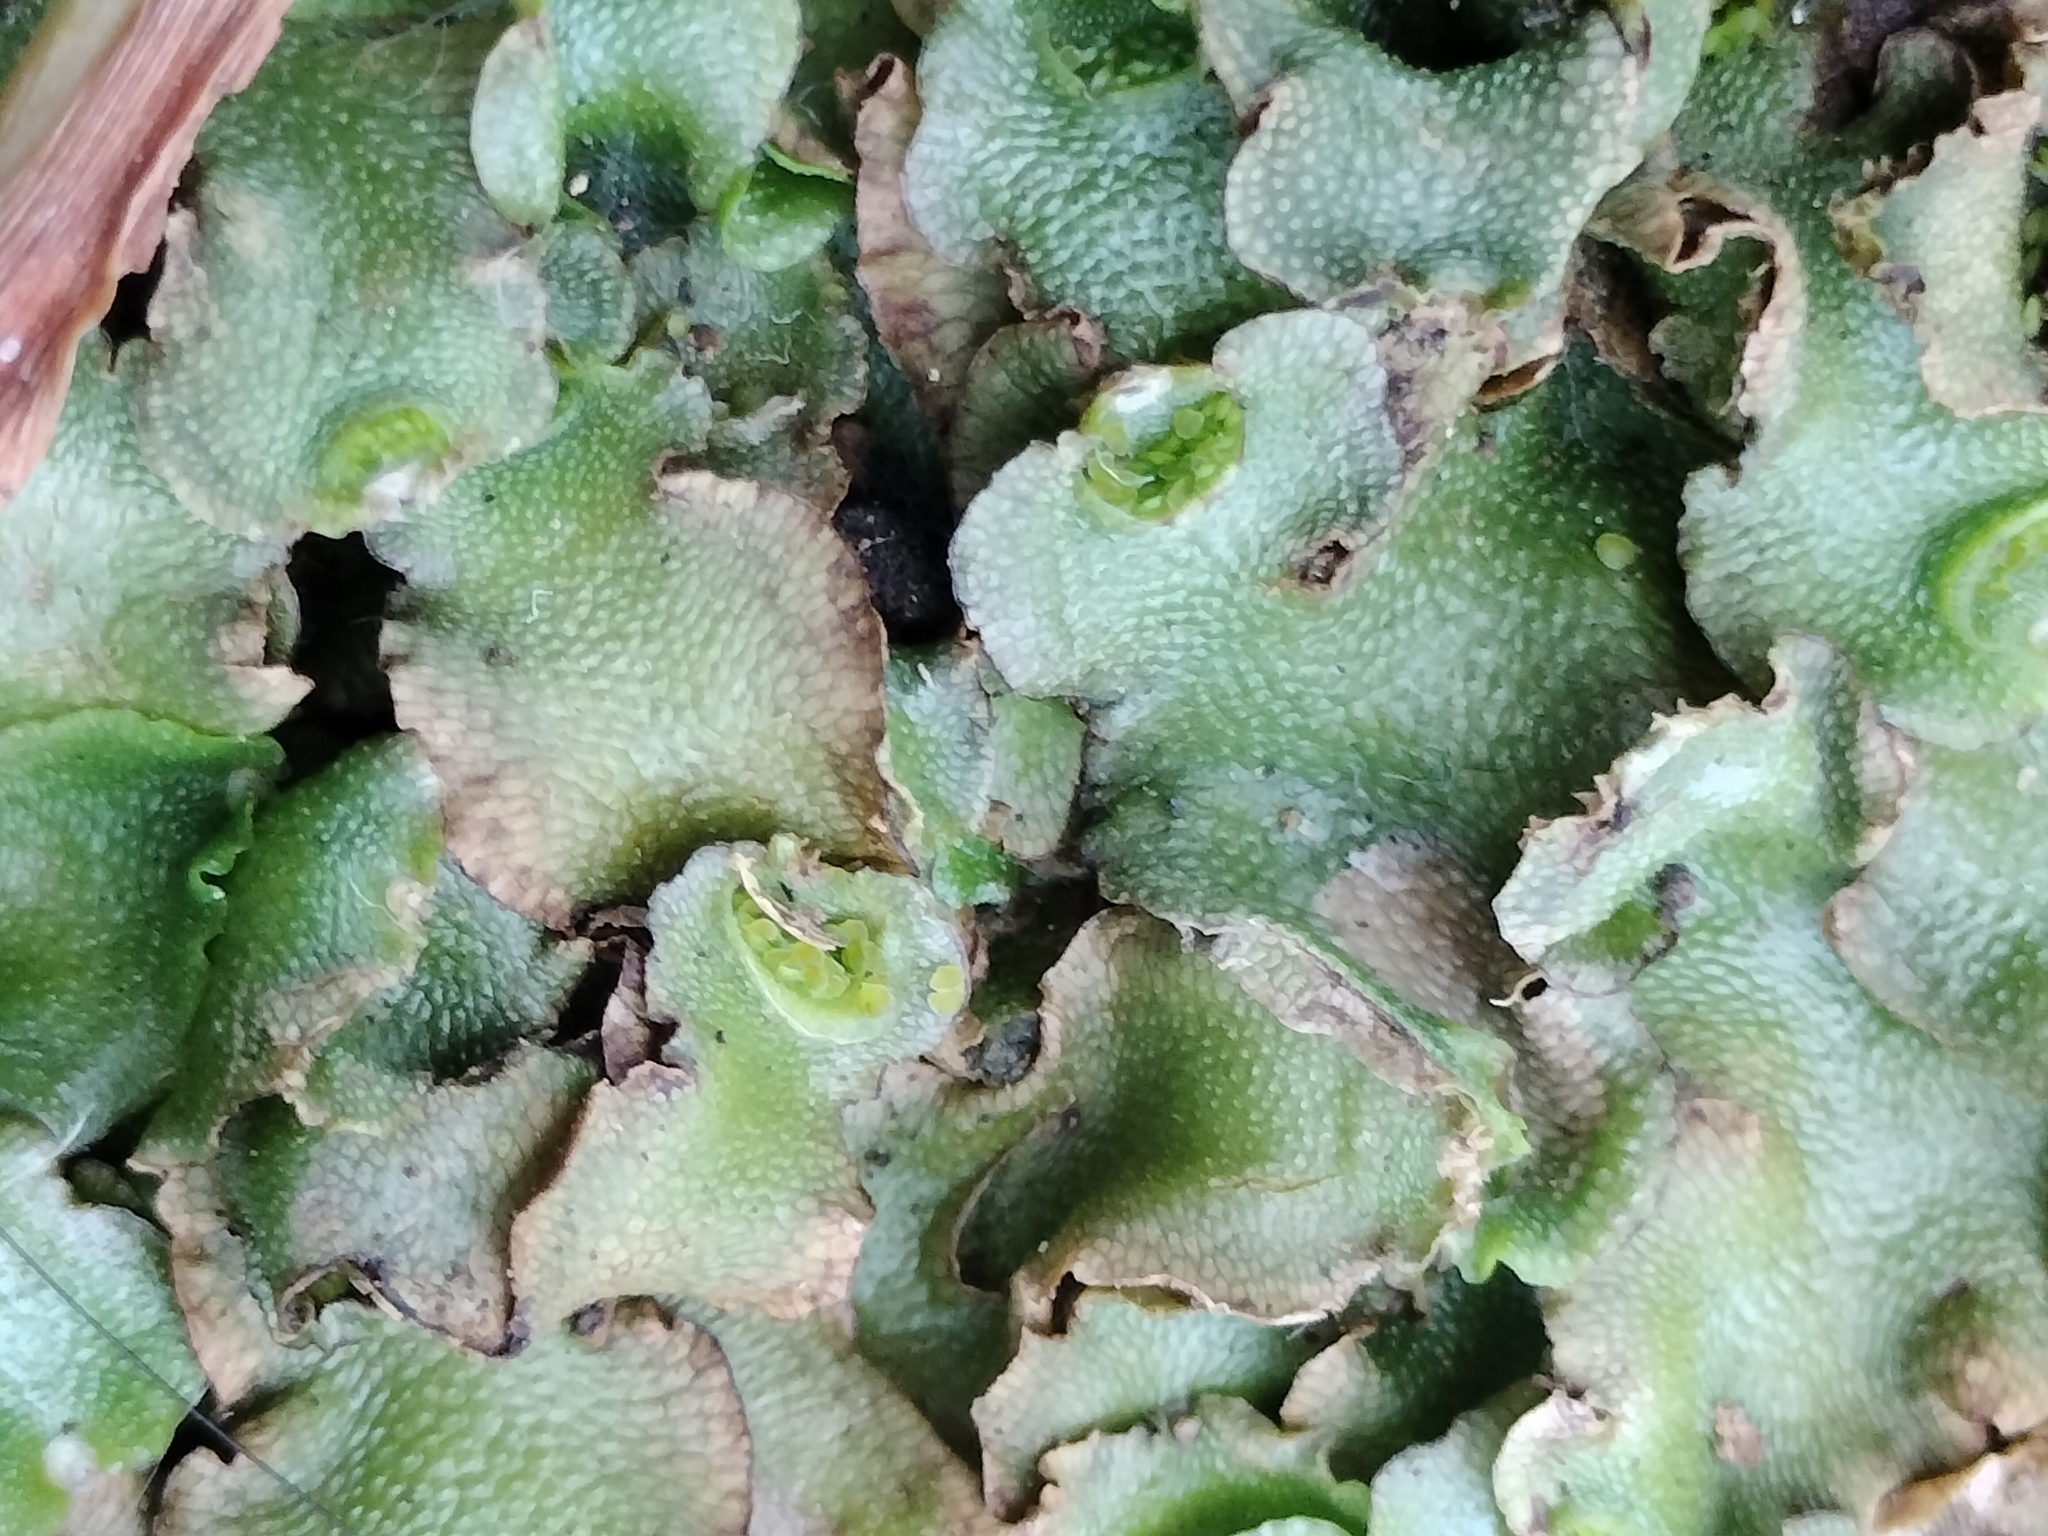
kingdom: Plantae
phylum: Marchantiophyta
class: Marchantiopsida
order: Lunulariales
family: Lunulariaceae
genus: Lunularia
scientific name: Lunularia cruciata
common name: Crescent-cup liverwort
